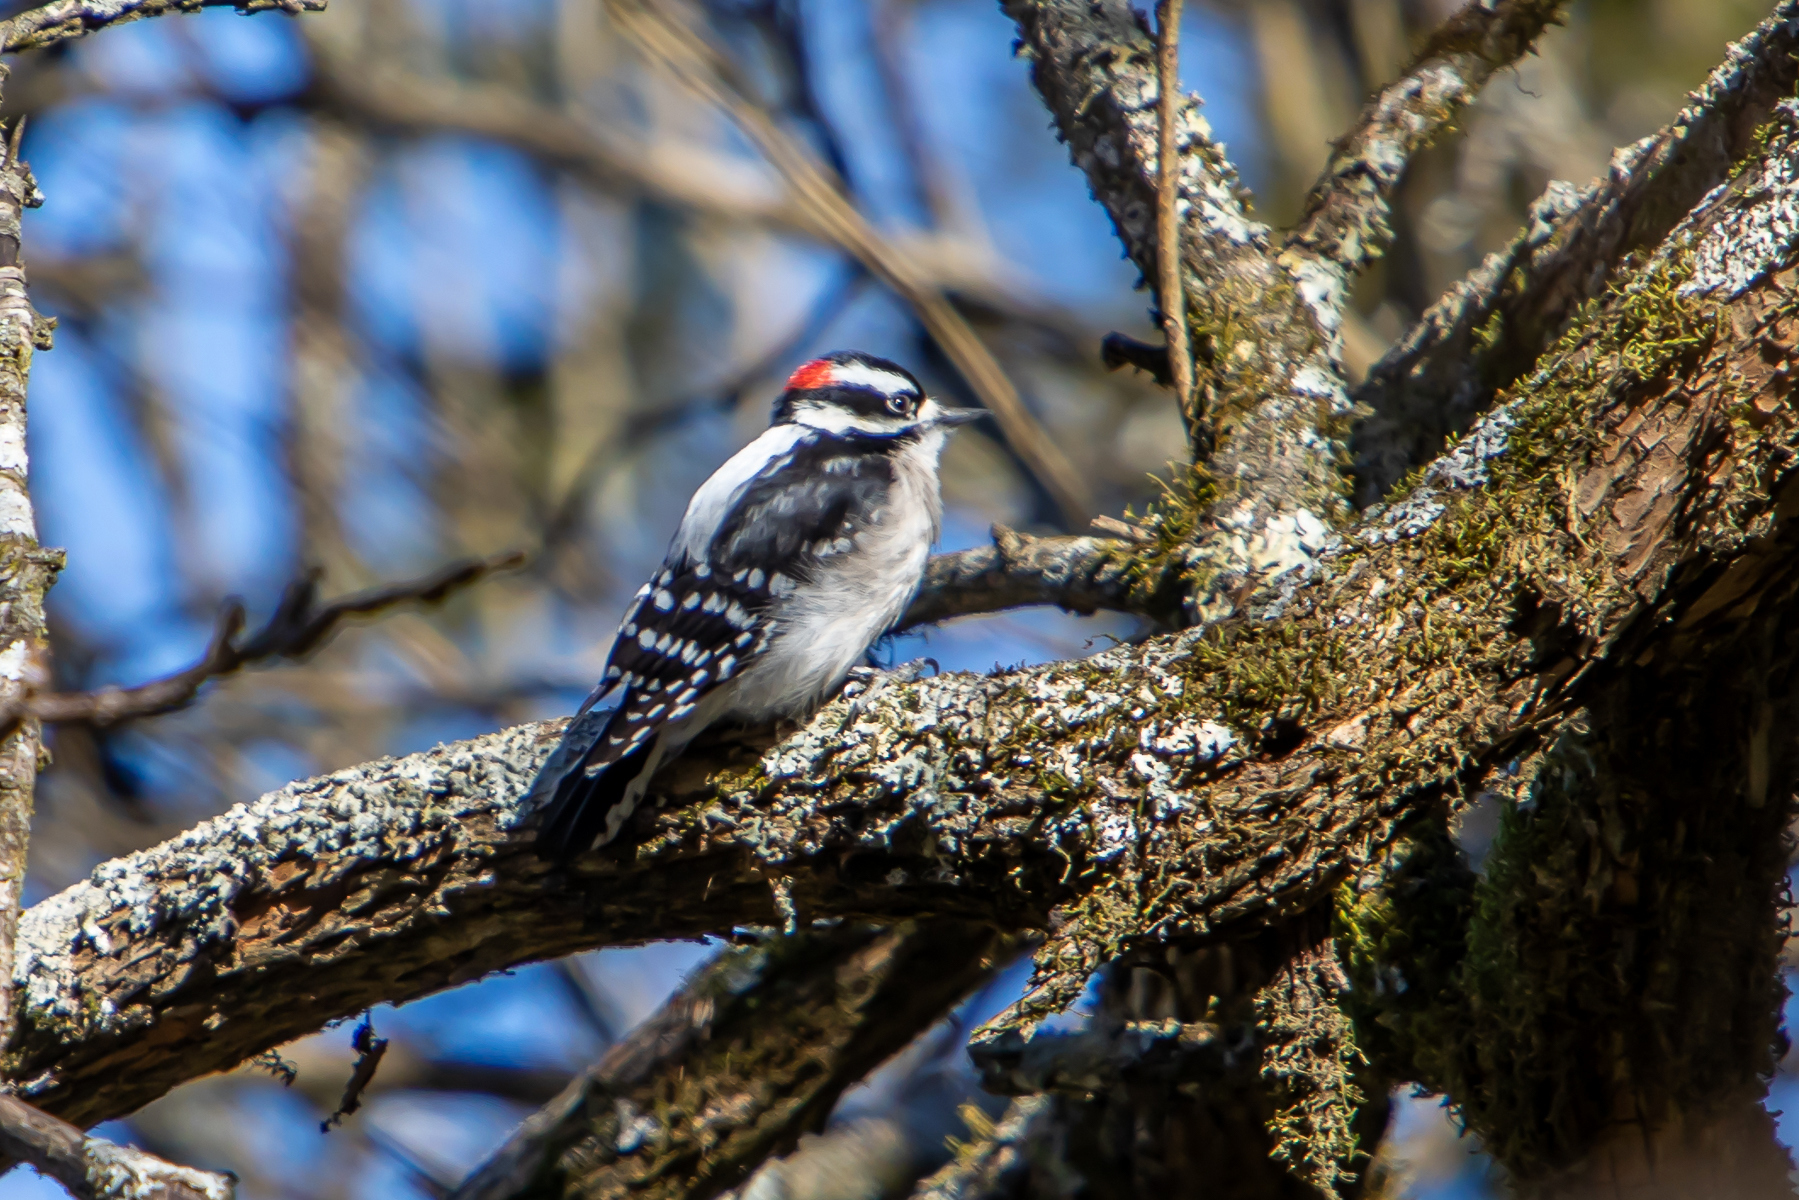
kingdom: Animalia
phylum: Chordata
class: Aves
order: Piciformes
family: Picidae
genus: Dryobates
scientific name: Dryobates pubescens
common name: Downy woodpecker
